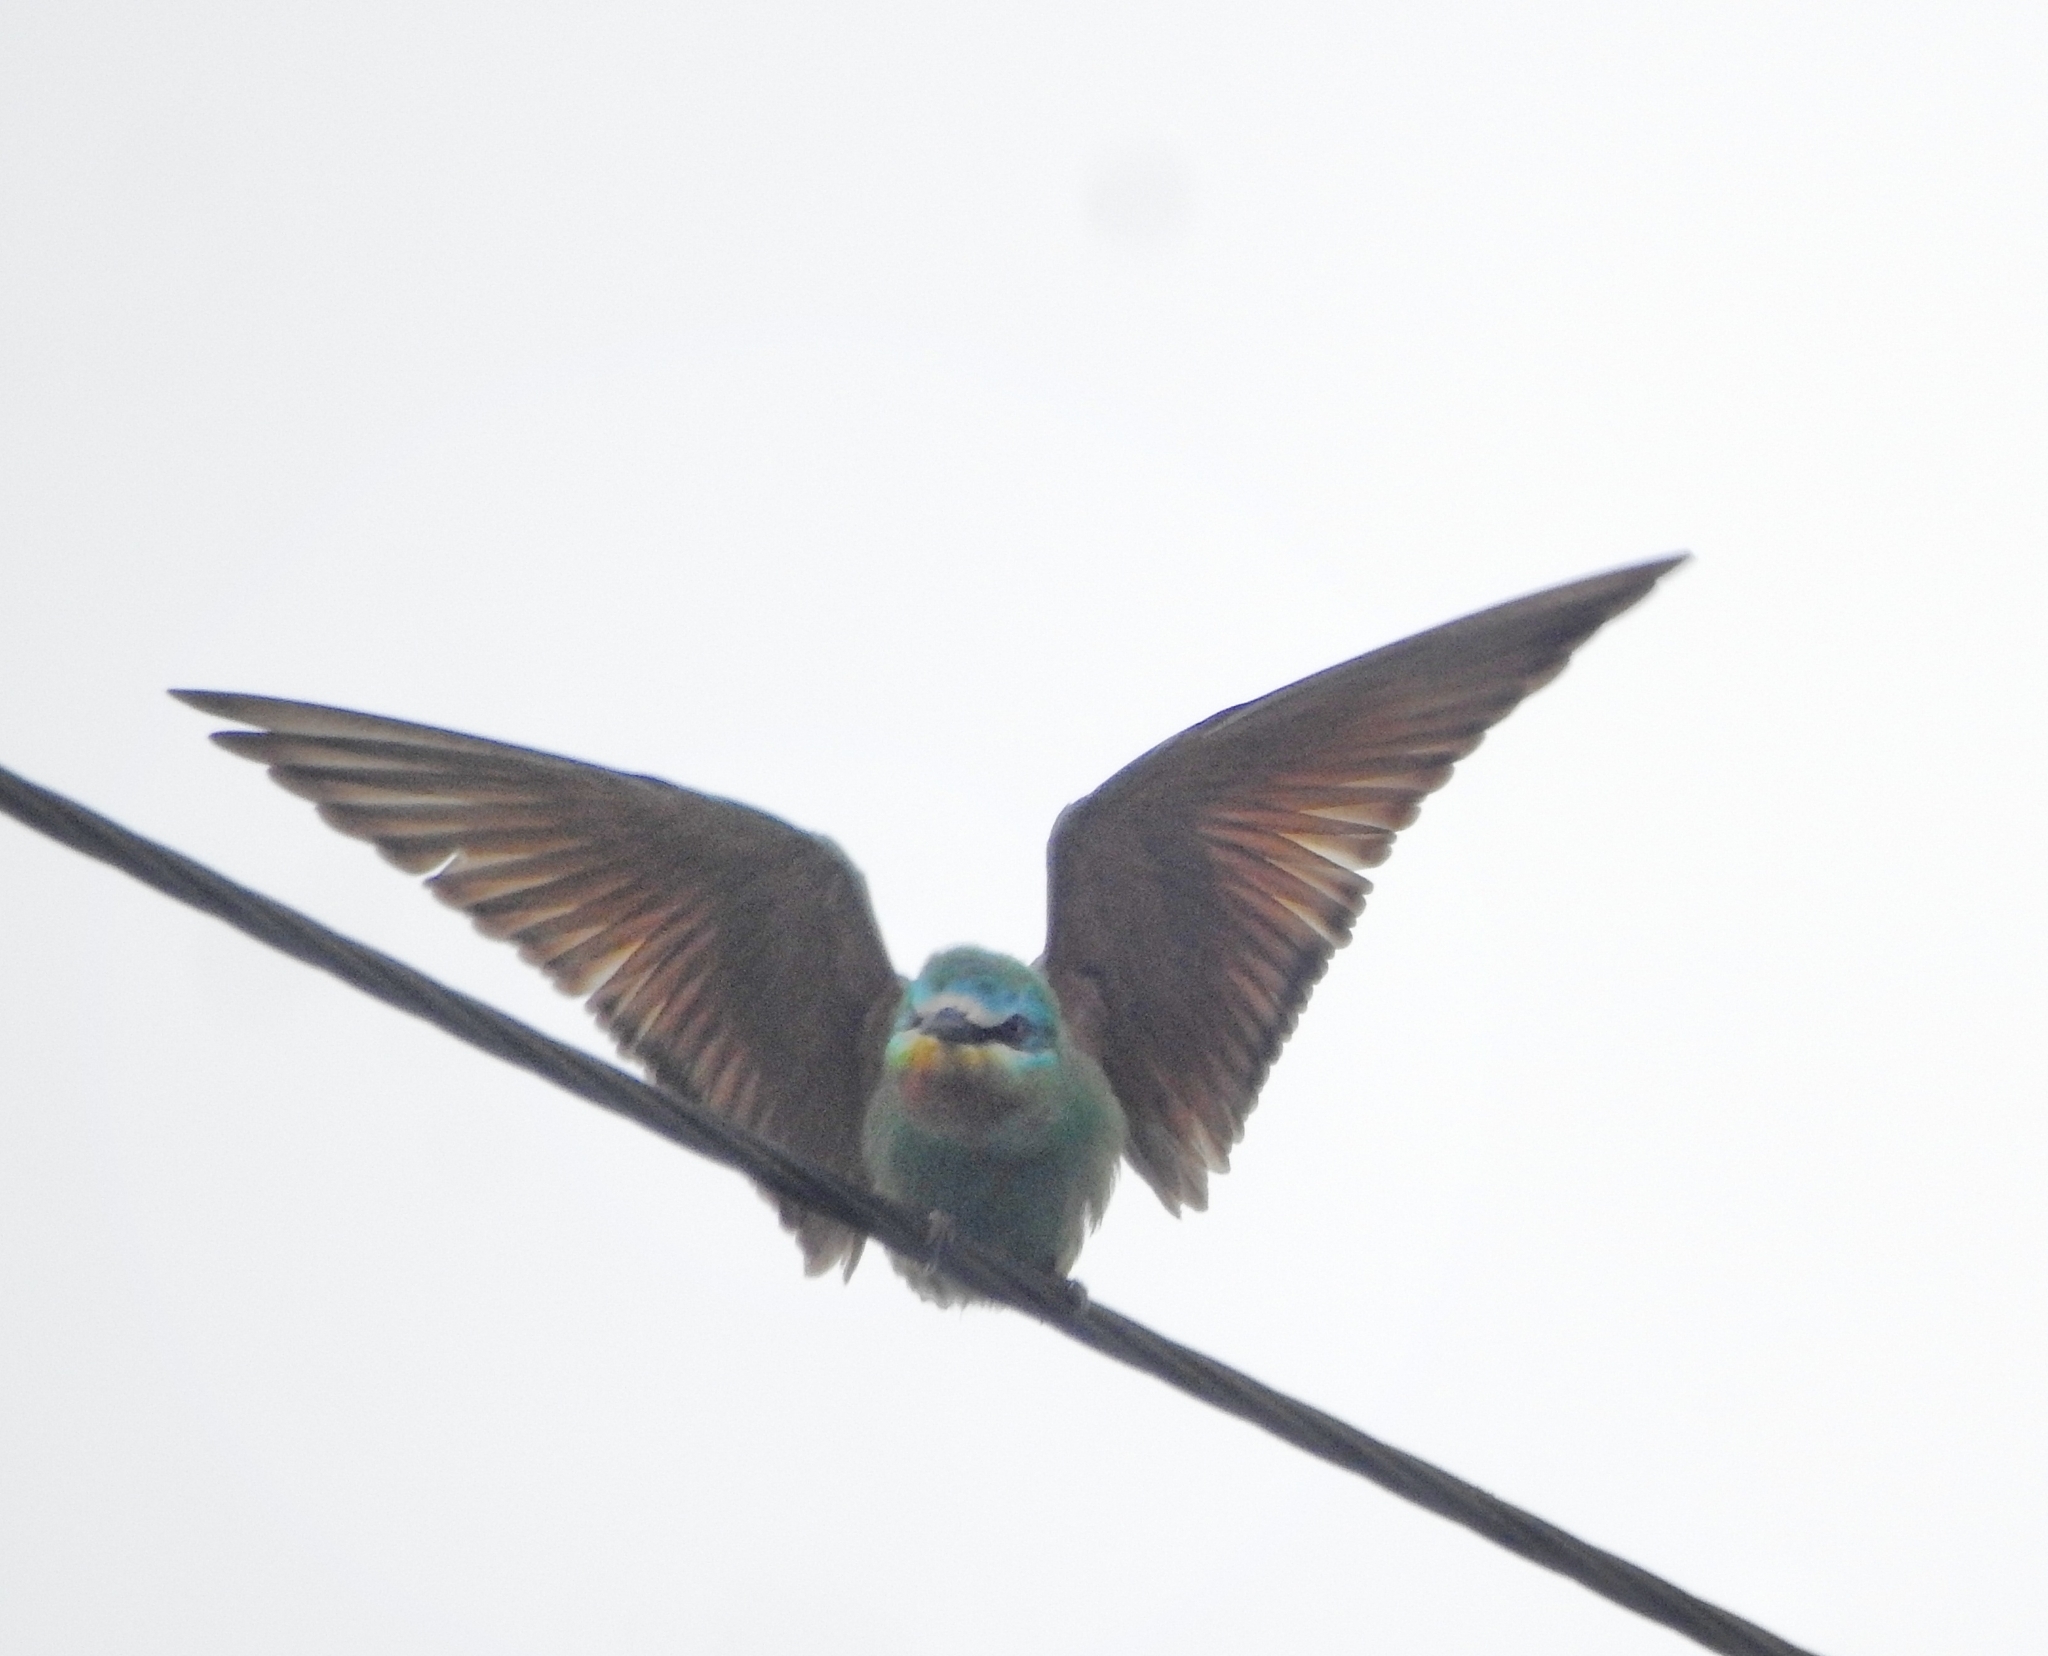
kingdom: Animalia
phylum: Chordata
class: Aves
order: Coraciiformes
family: Meropidae
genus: Merops
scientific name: Merops persicus
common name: Blue-cheeked bee-eater
